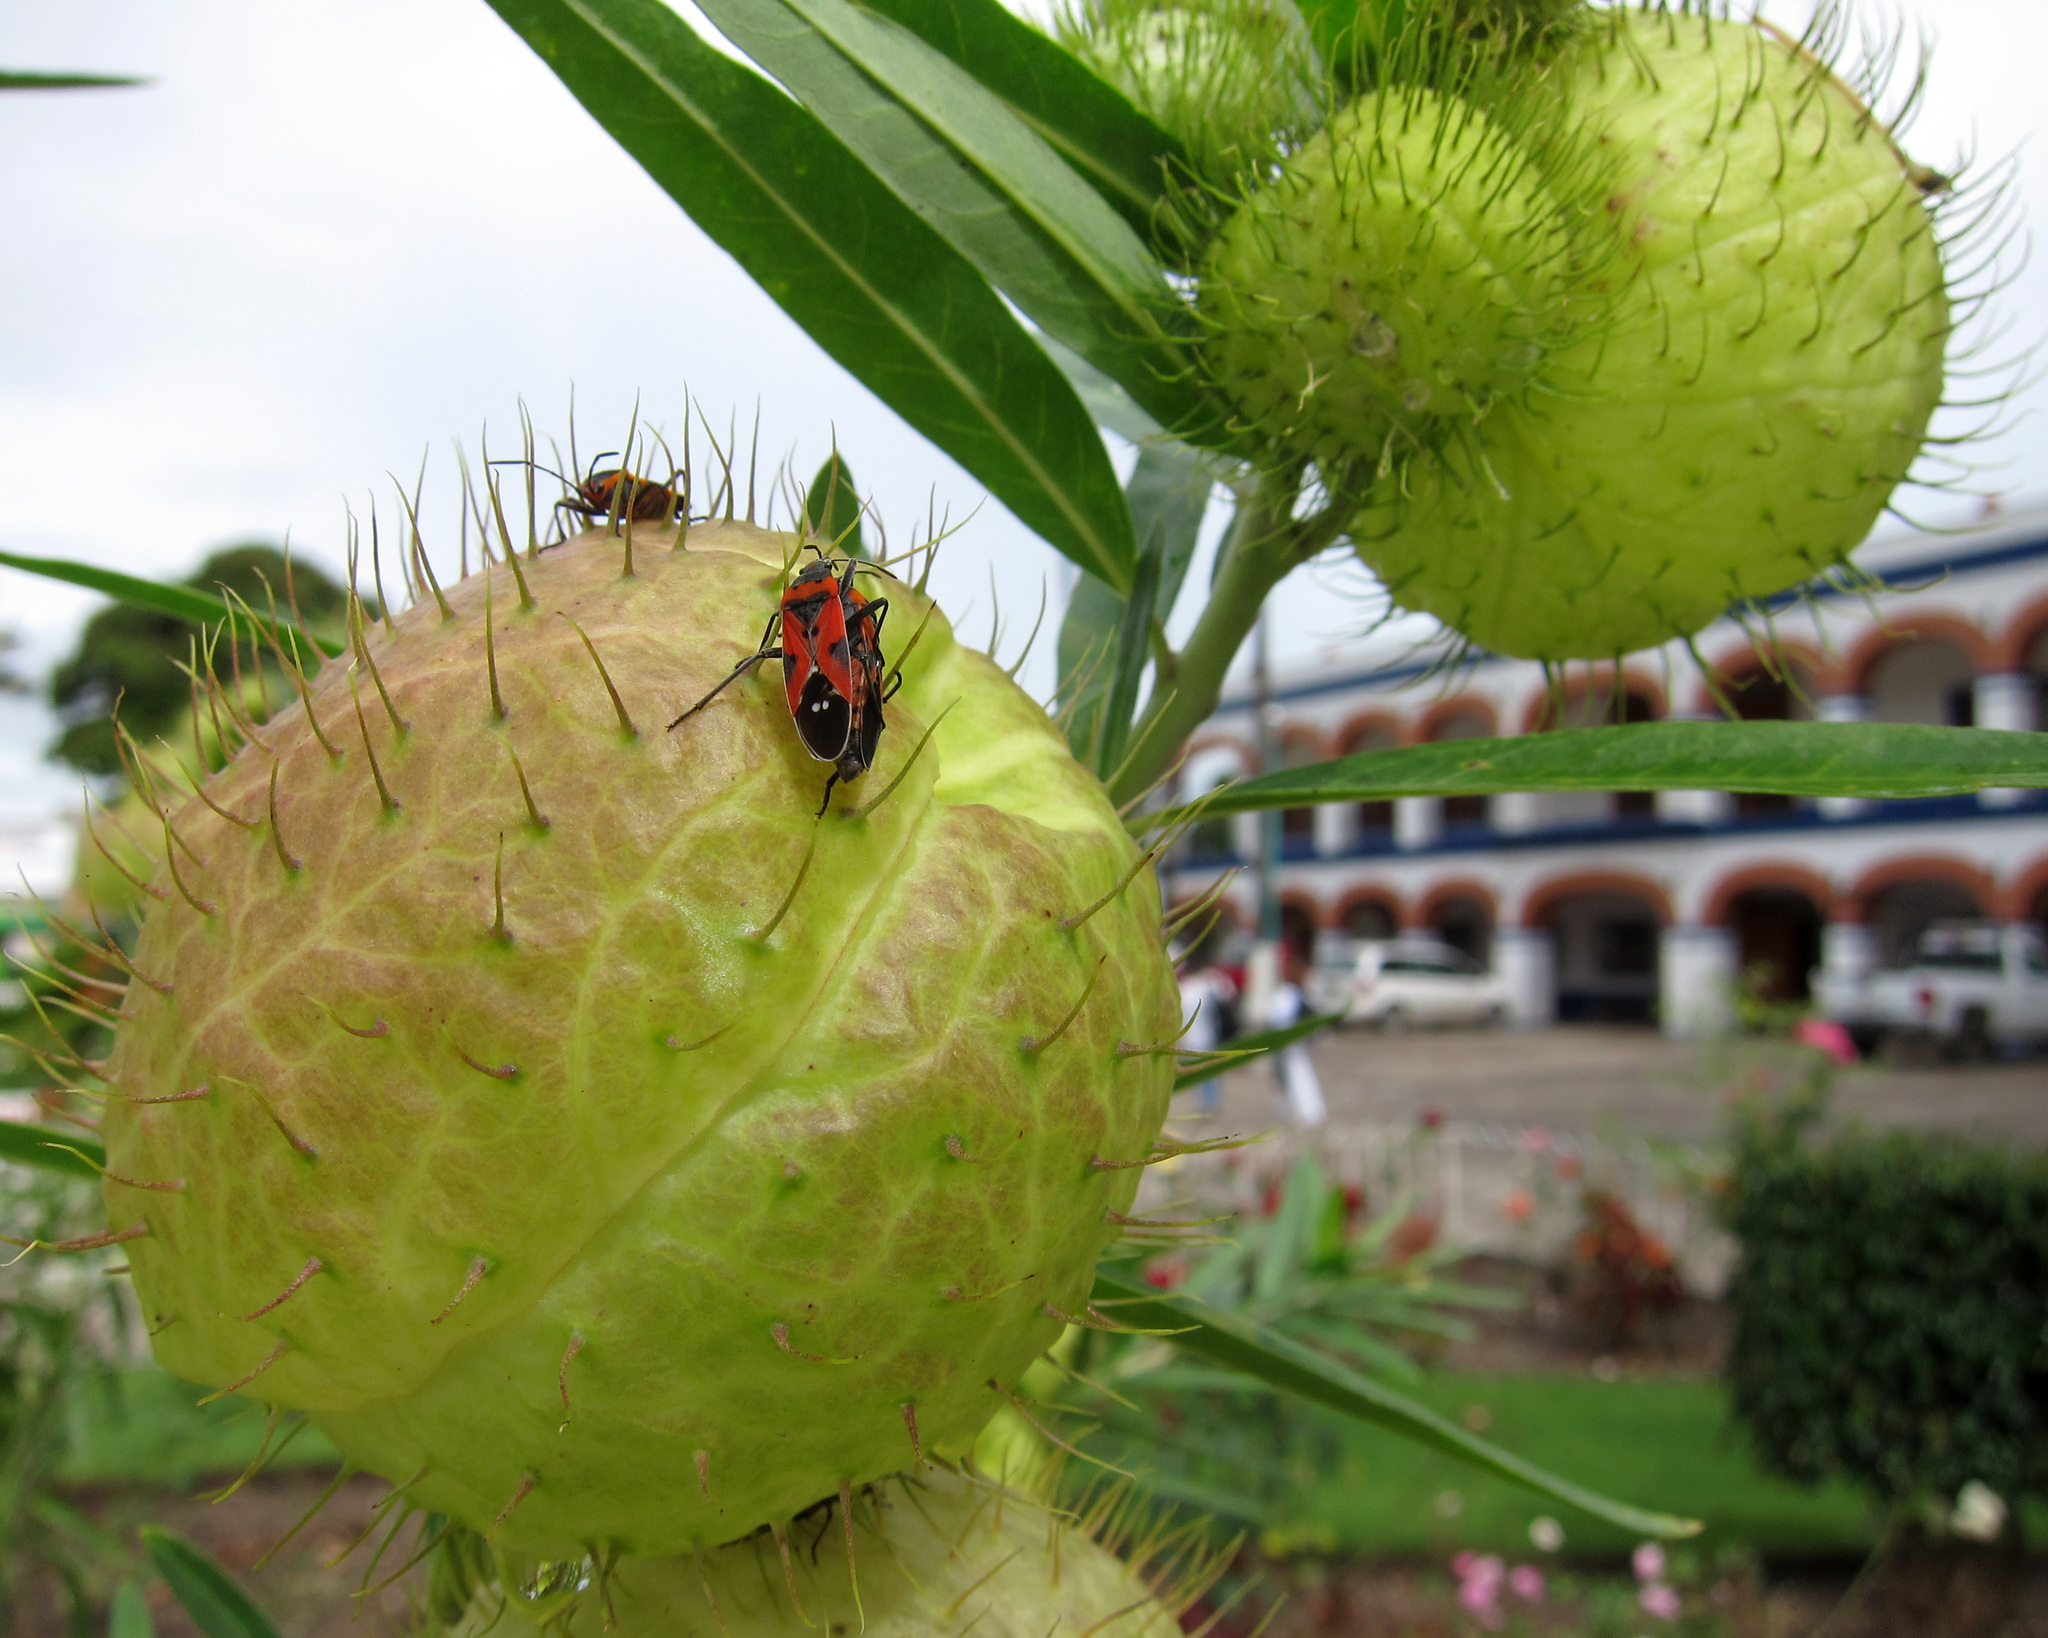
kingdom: Animalia
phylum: Arthropoda
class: Insecta
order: Hemiptera
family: Lygaeidae
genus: Lygaeus
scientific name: Lygaeus reclivatus
